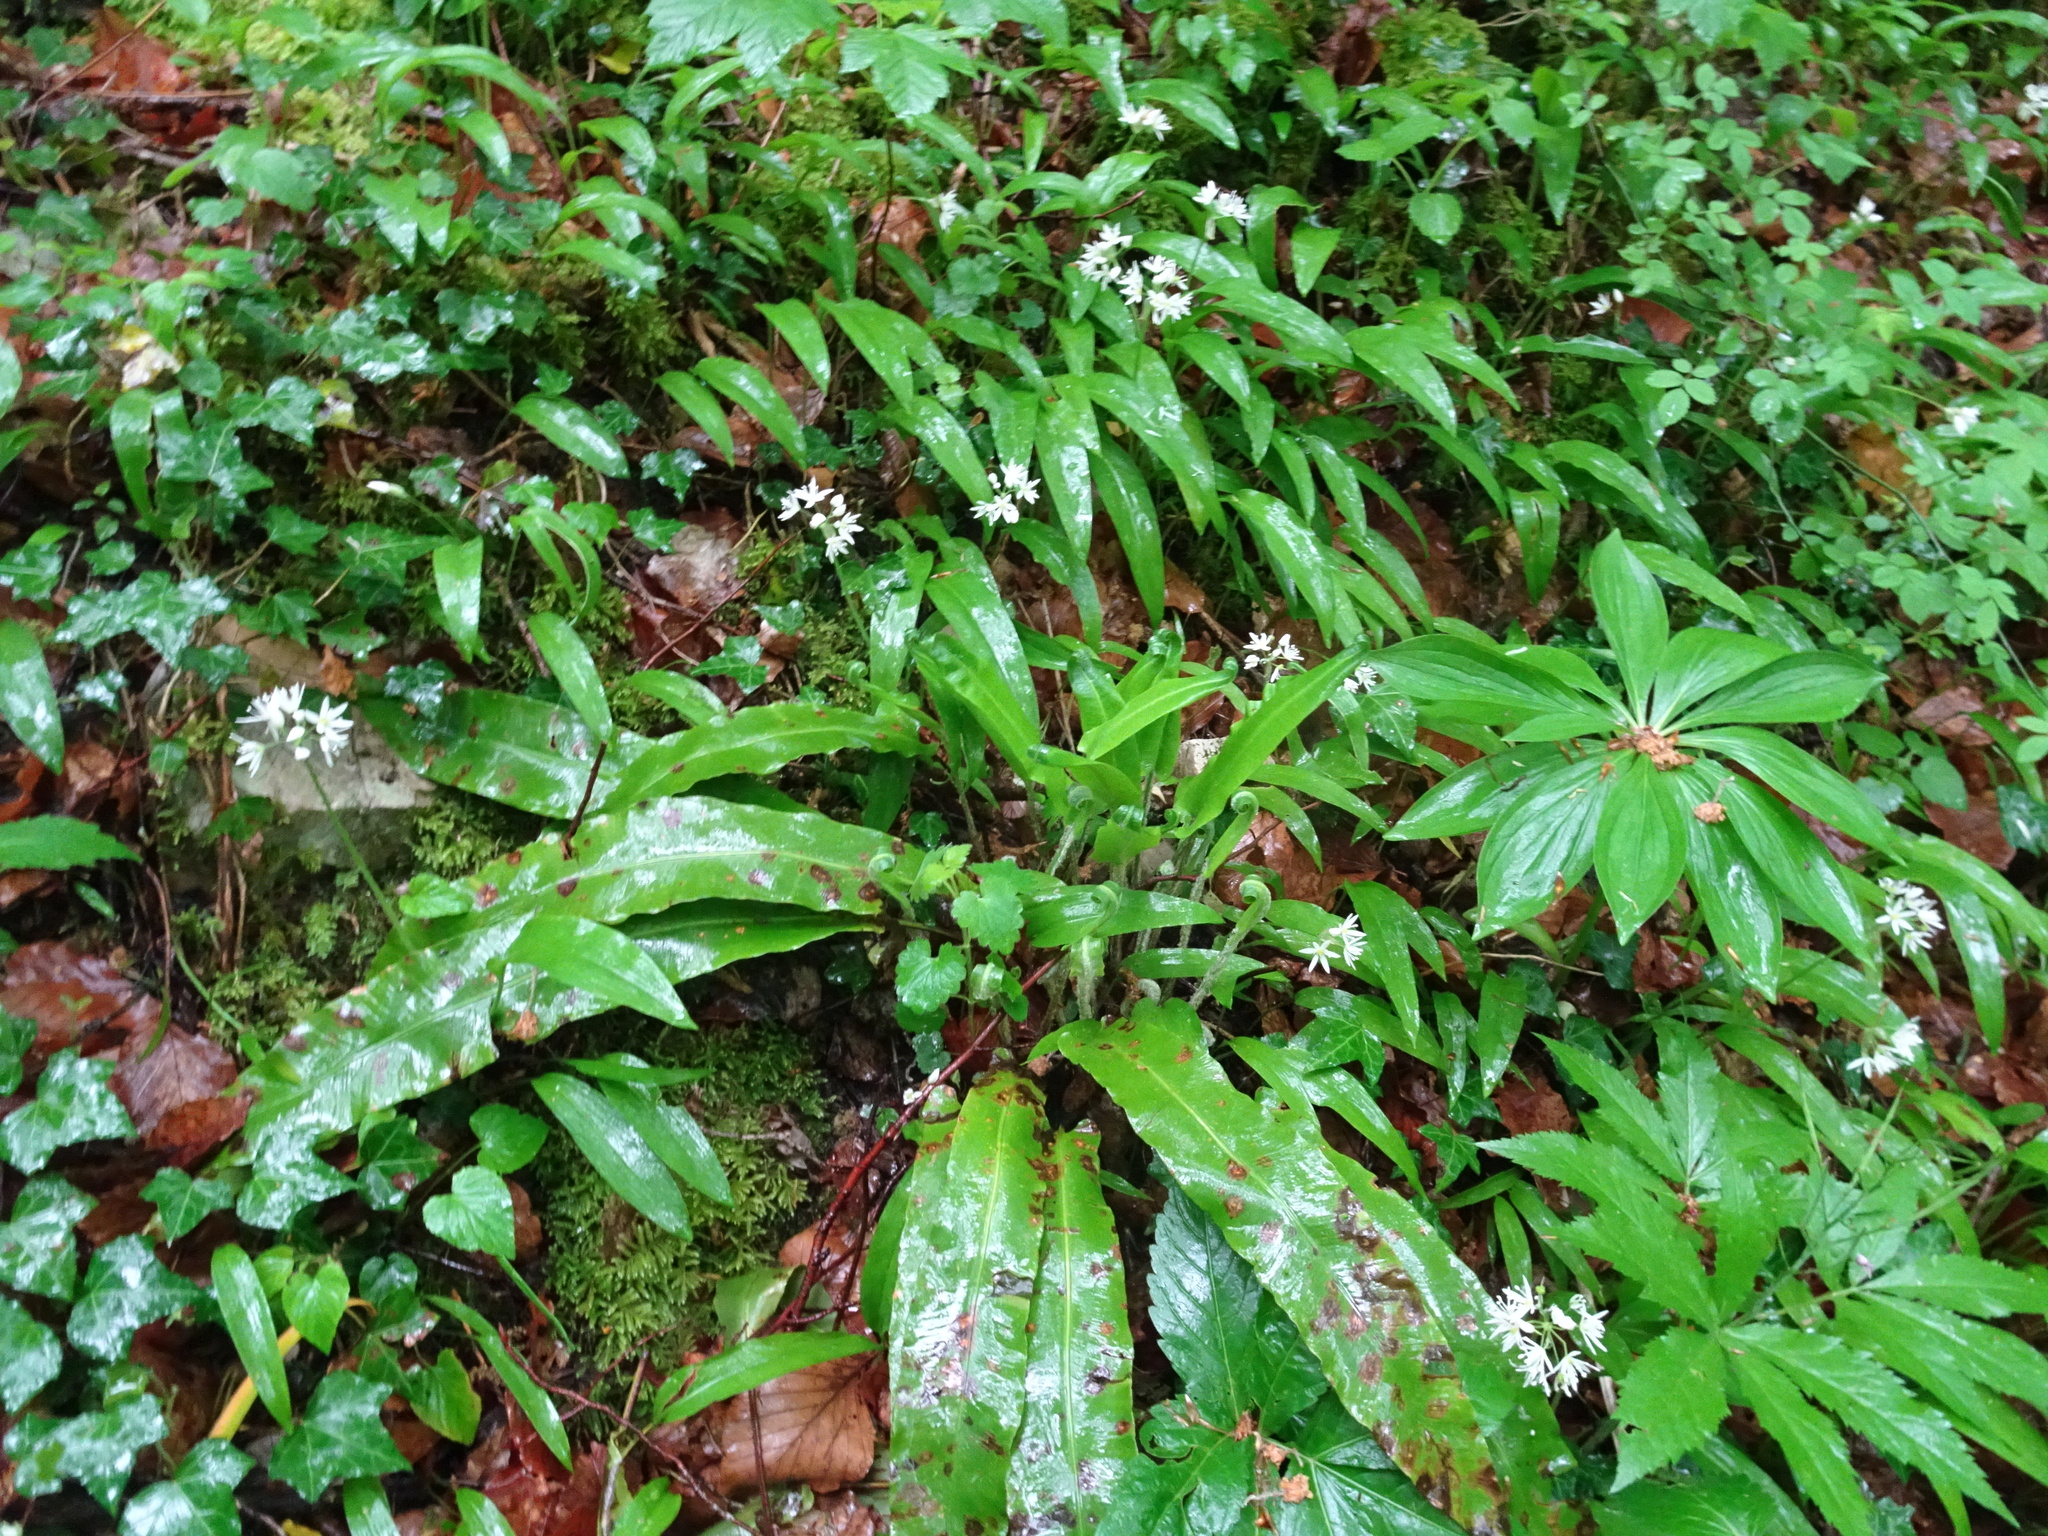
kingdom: Plantae
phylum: Tracheophyta
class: Polypodiopsida
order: Polypodiales
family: Aspleniaceae
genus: Asplenium
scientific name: Asplenium scolopendrium
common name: Hart's-tongue fern
